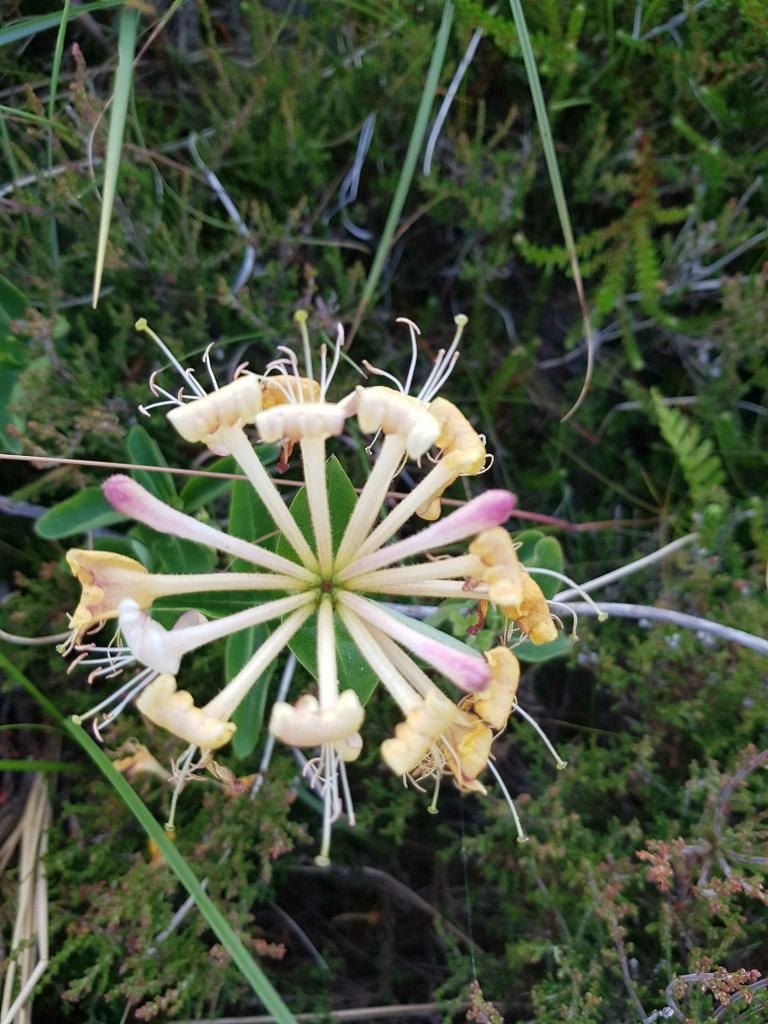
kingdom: Plantae
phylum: Tracheophyta
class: Magnoliopsida
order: Dipsacales
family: Caprifoliaceae
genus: Lonicera
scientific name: Lonicera periclymenum
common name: European honeysuckle
